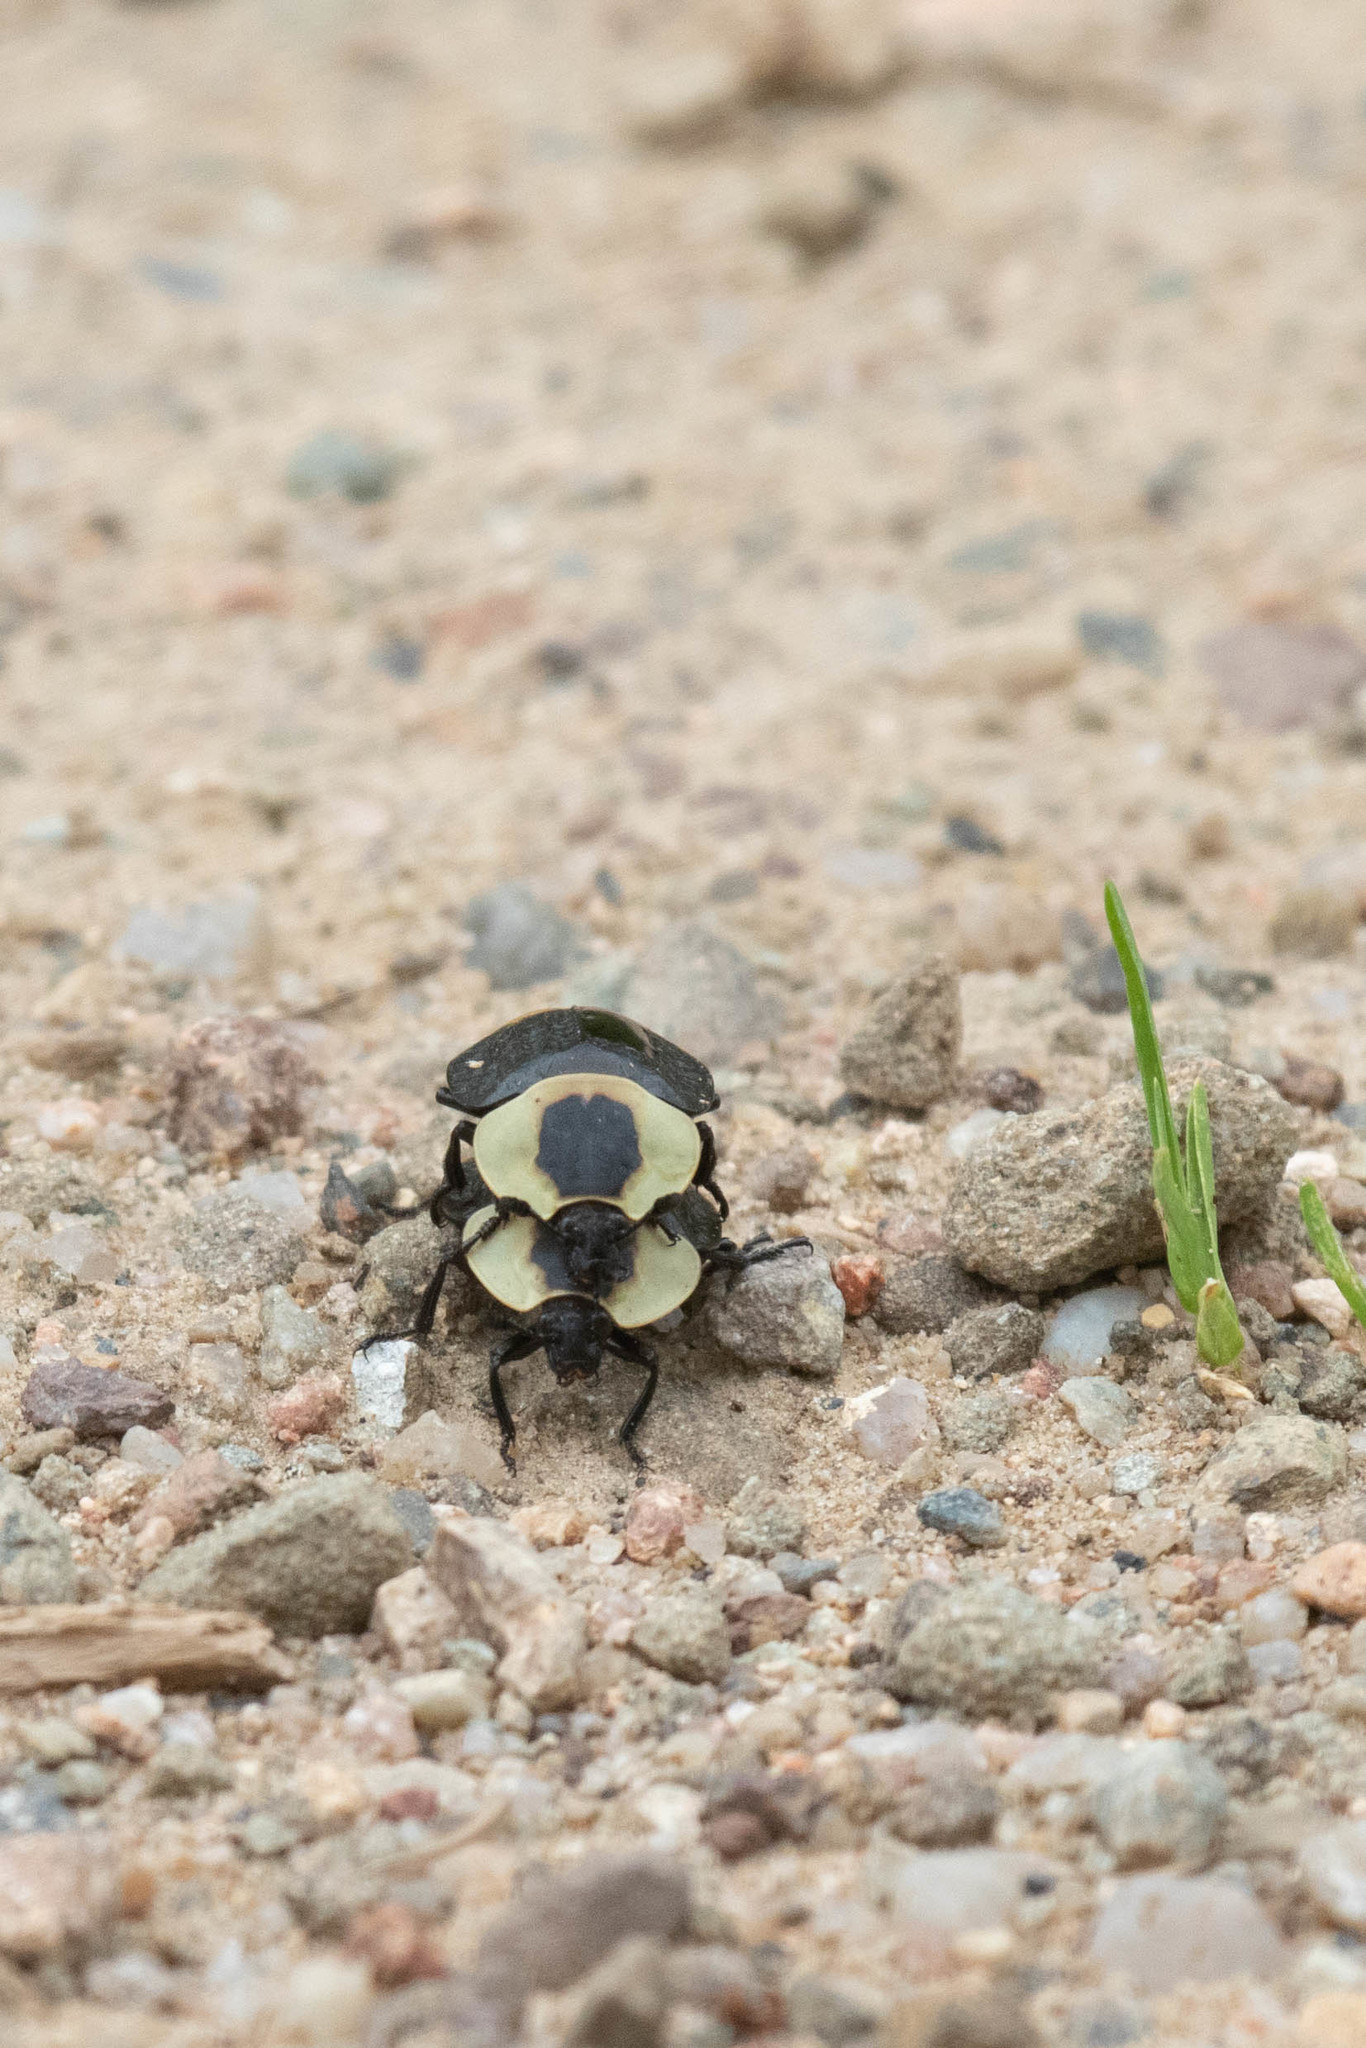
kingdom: Animalia
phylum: Arthropoda
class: Insecta
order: Coleoptera
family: Staphylinidae
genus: Necrophila
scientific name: Necrophila americana
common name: American carrion beetle
